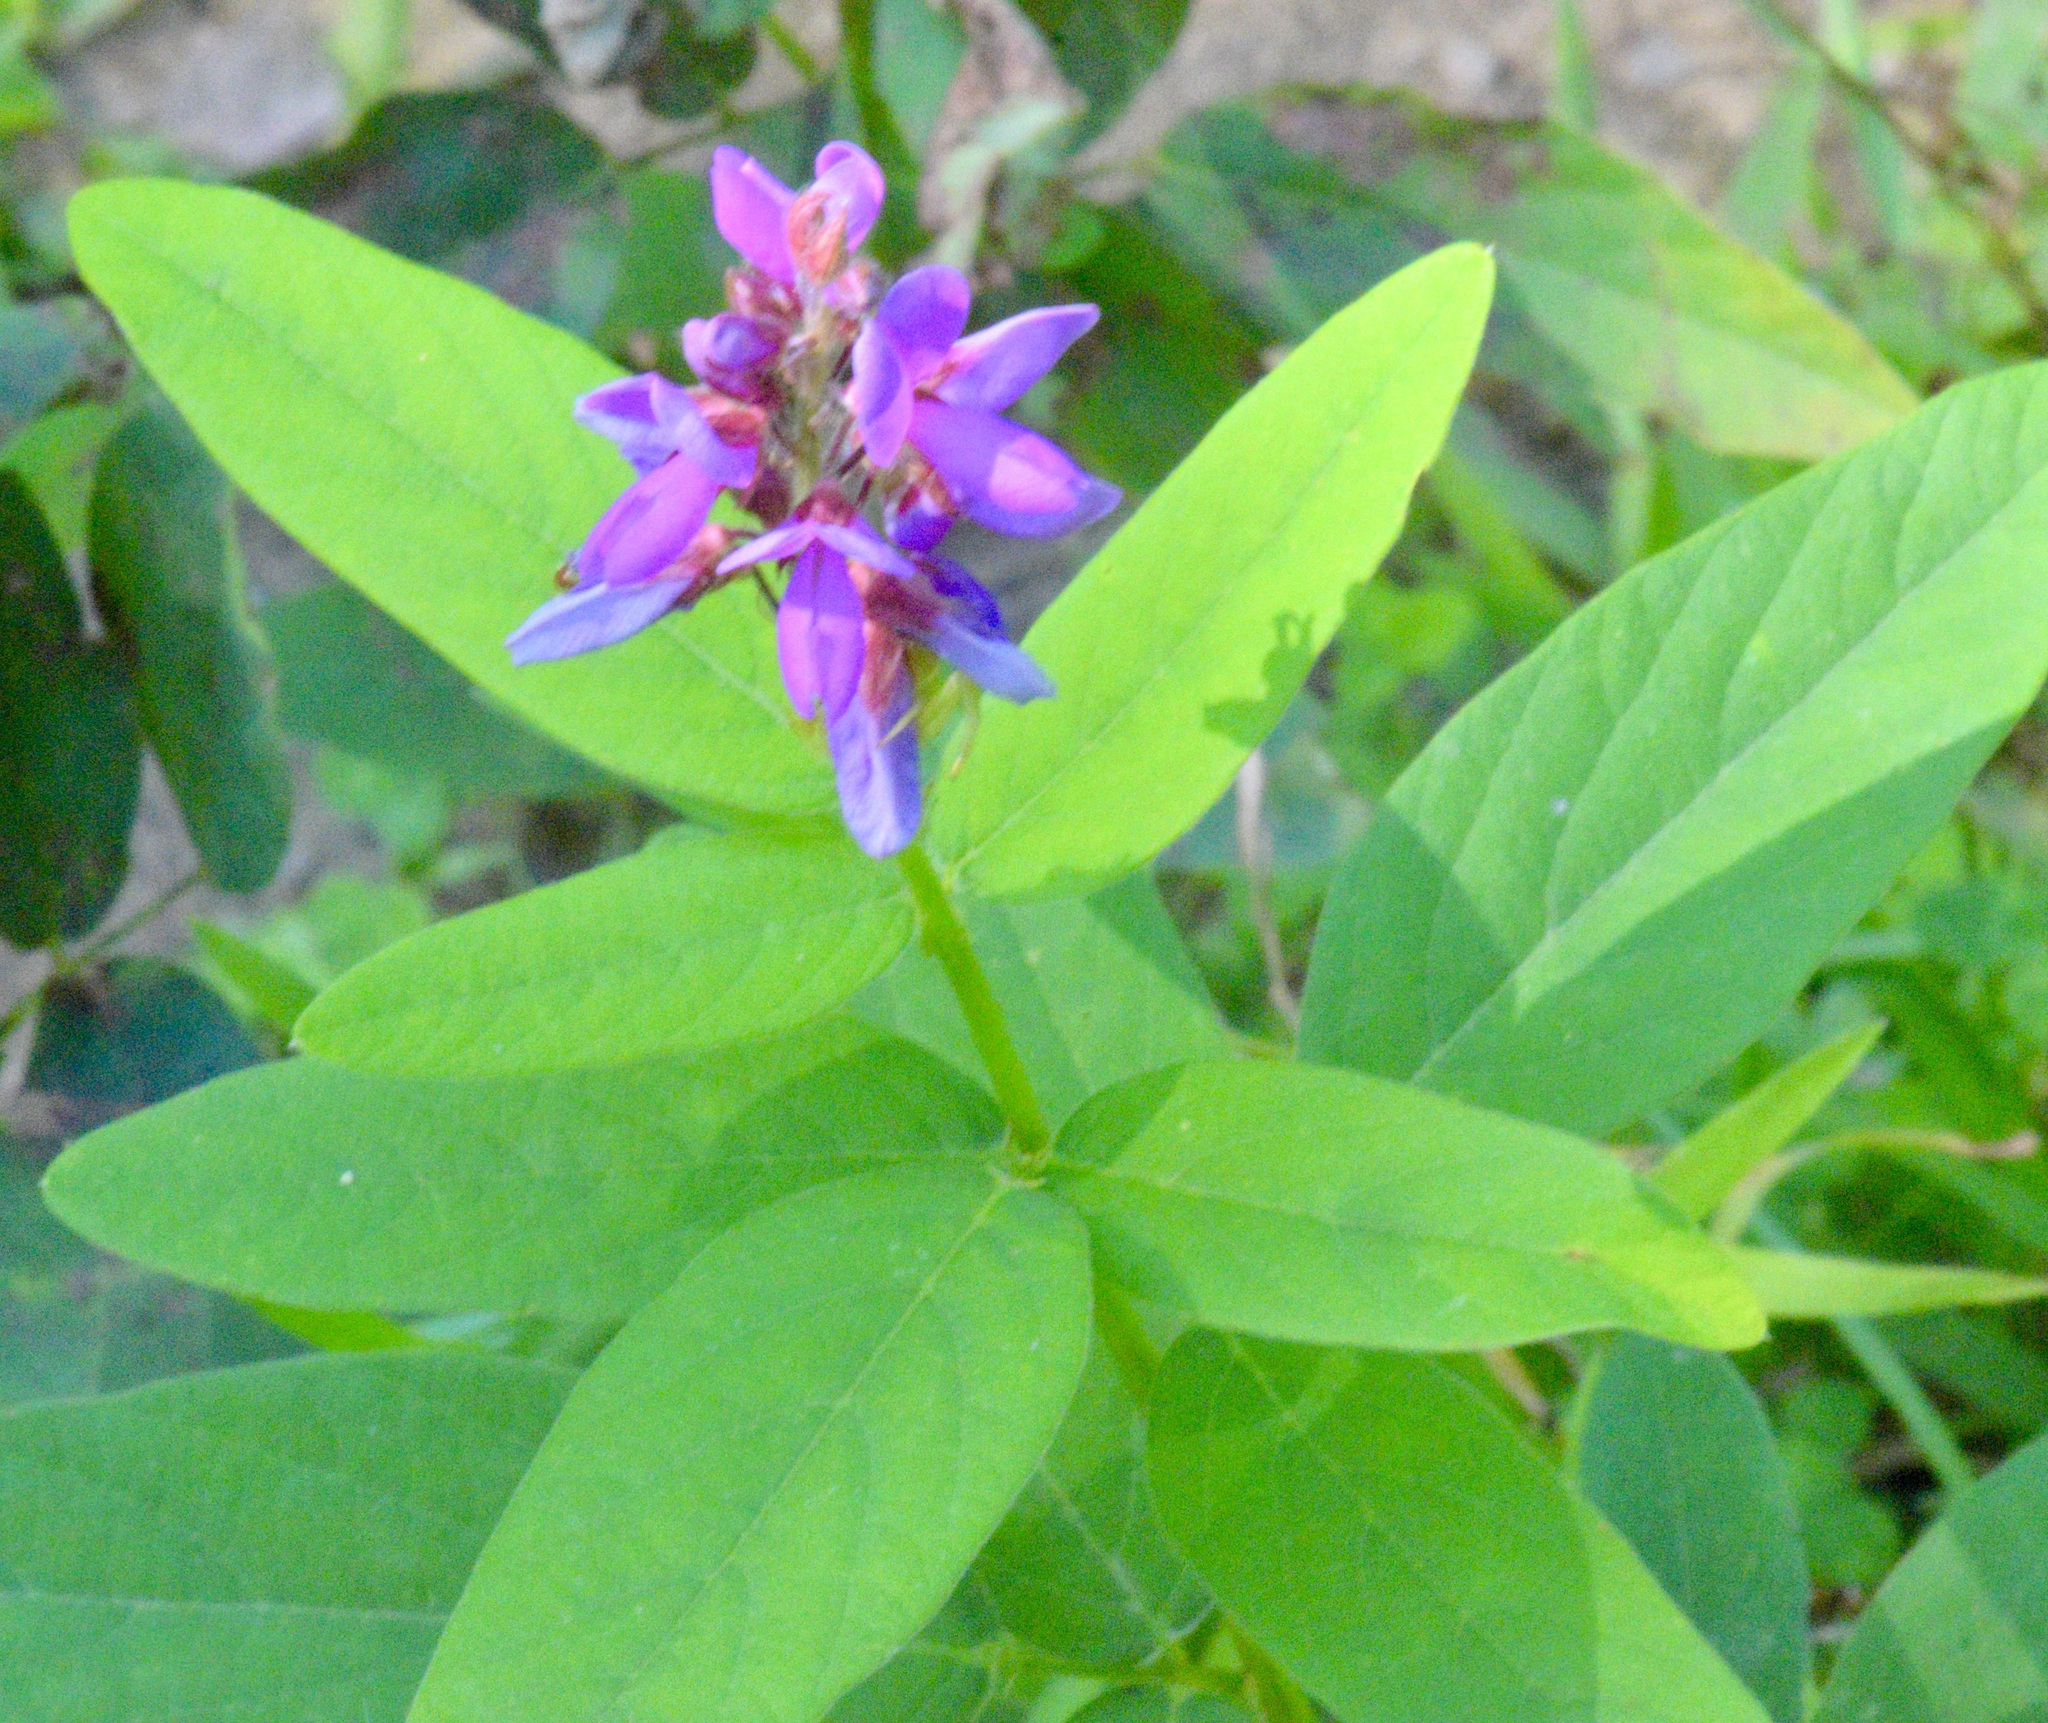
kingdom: Plantae
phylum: Tracheophyta
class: Magnoliopsida
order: Fabales
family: Fabaceae
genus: Desmodium
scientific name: Desmodium canadense
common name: Canada tick-trefoil
